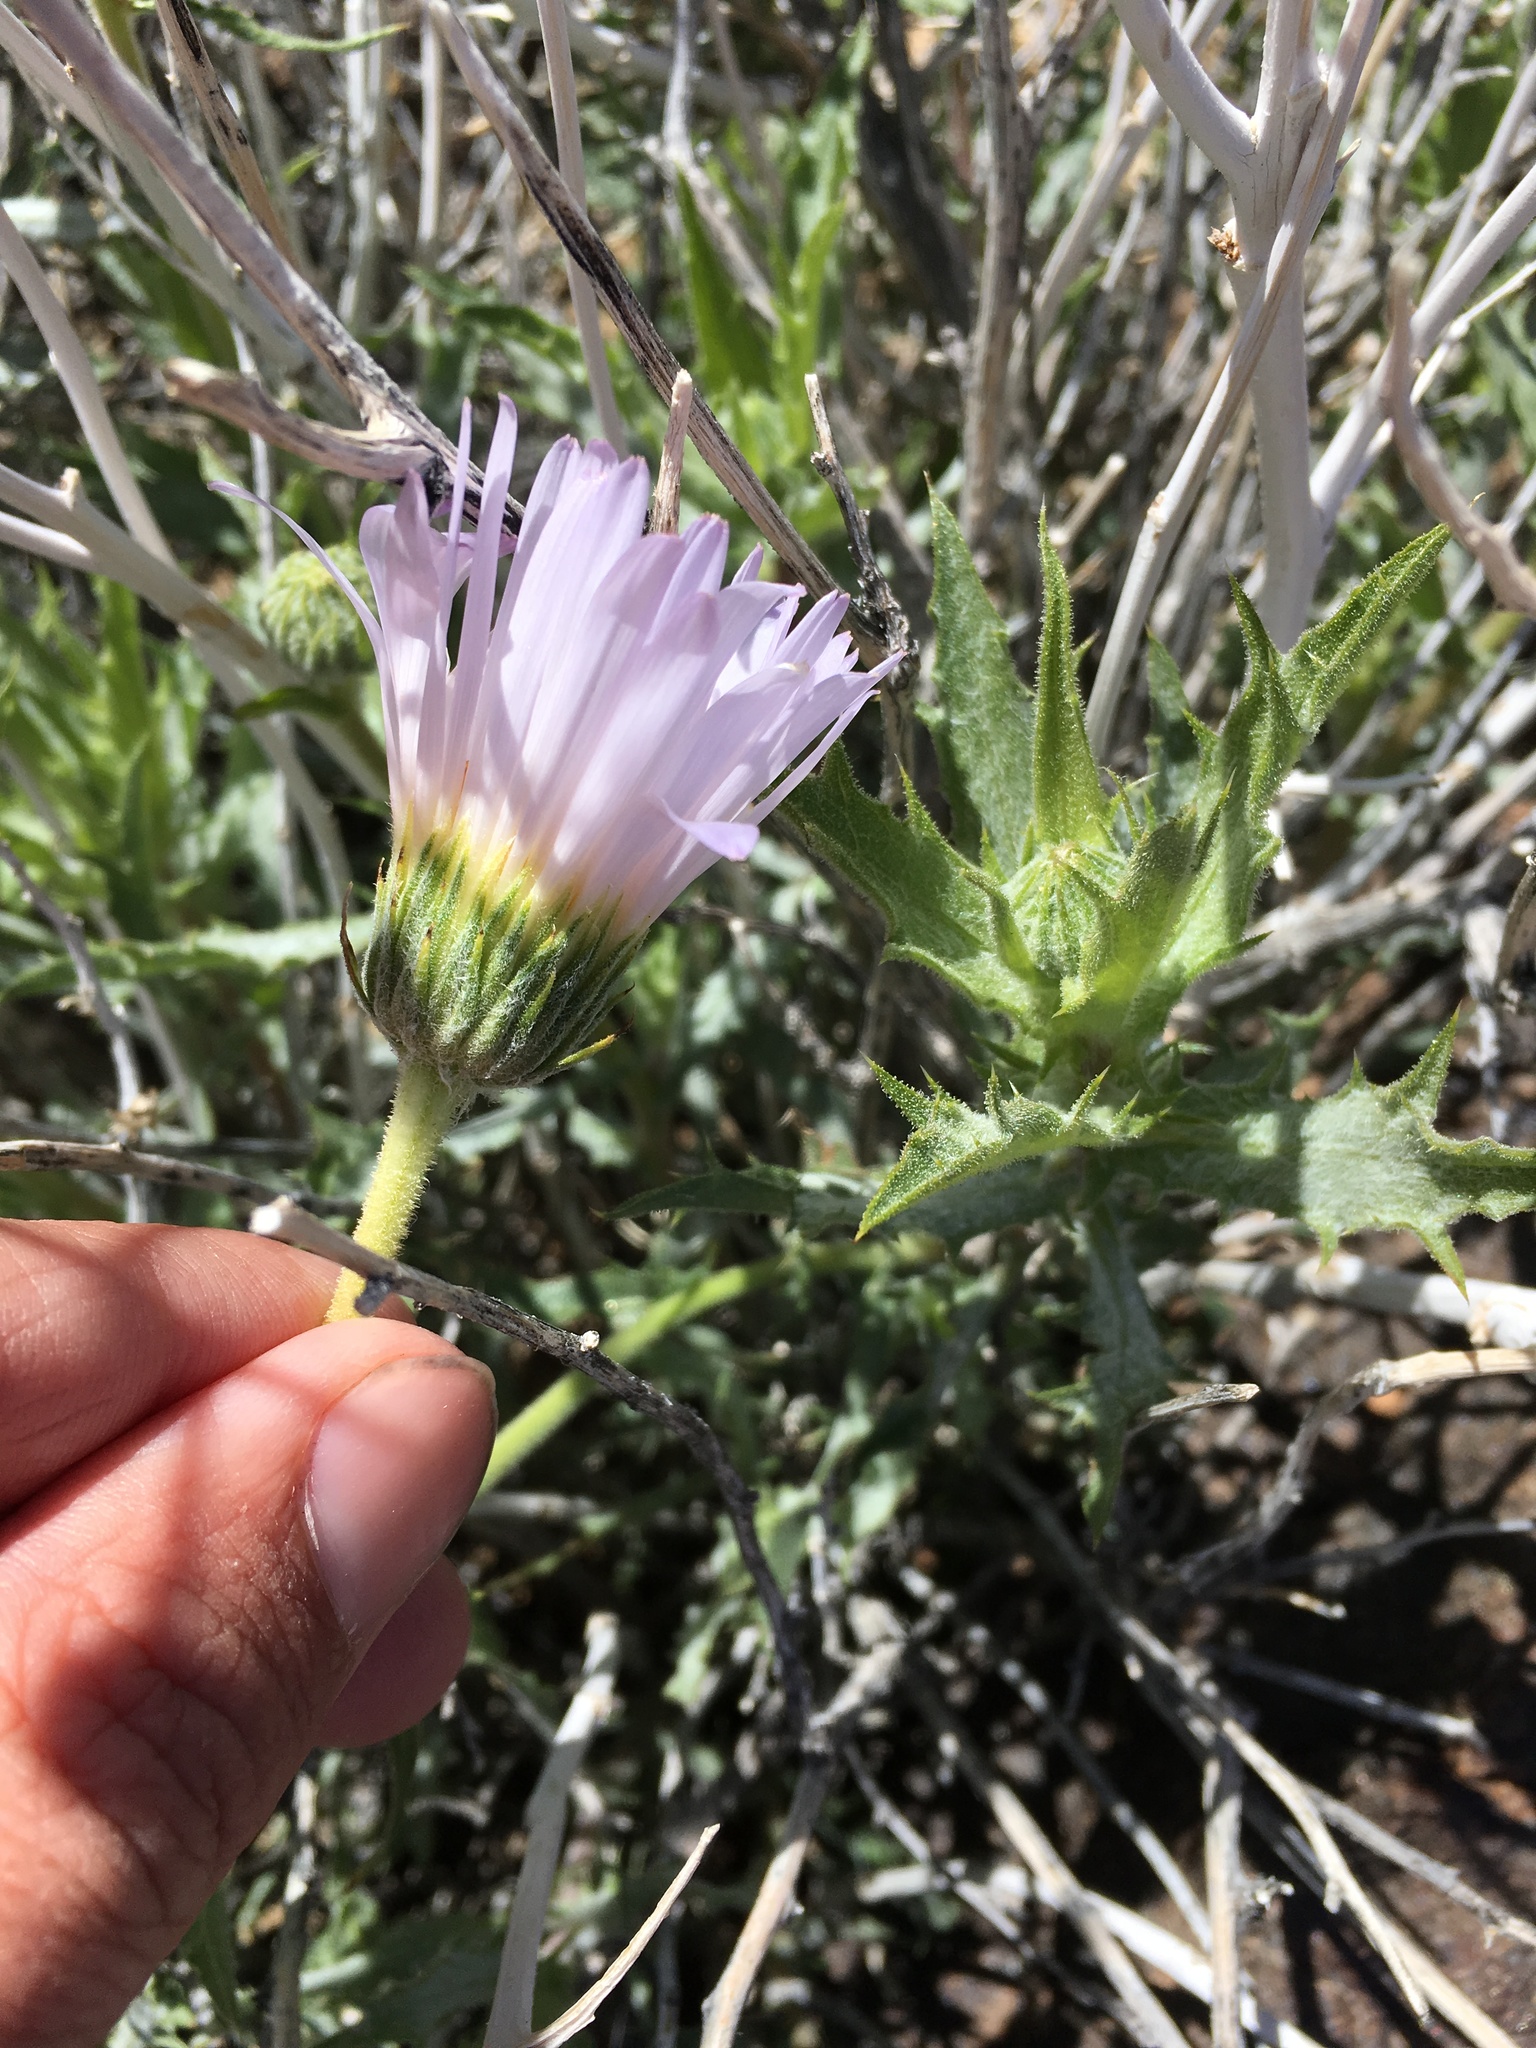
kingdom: Plantae
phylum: Tracheophyta
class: Magnoliopsida
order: Asterales
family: Asteraceae
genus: Xylorhiza
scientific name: Xylorhiza tortifolia
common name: Hurt-leaf woody-aster
